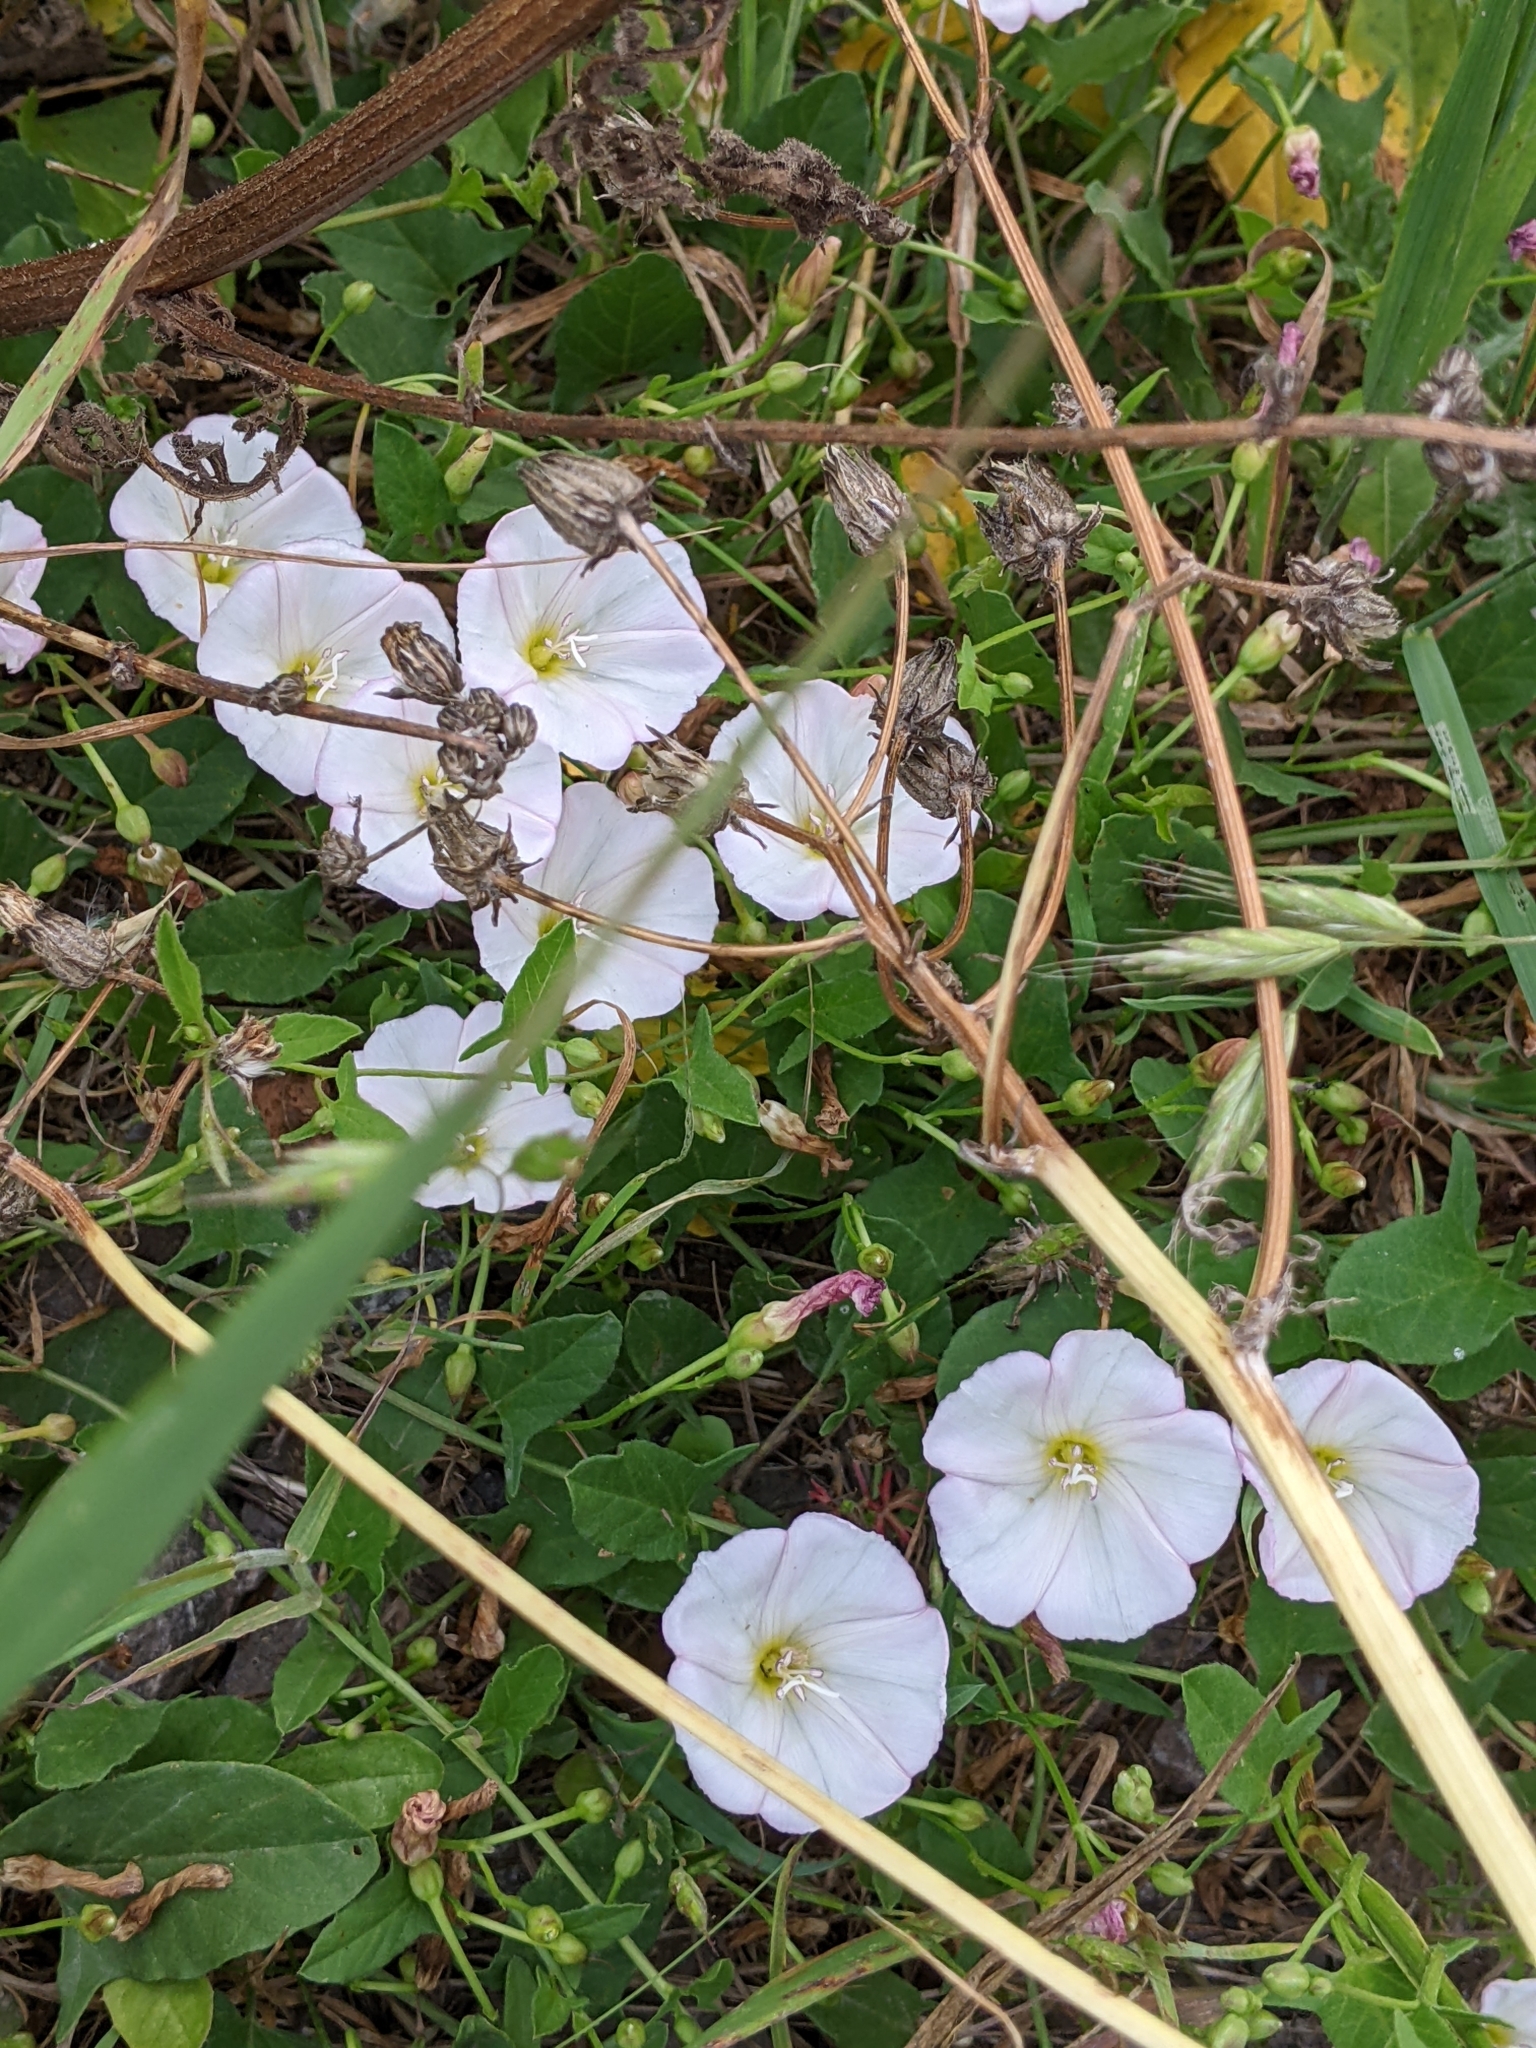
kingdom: Plantae
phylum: Tracheophyta
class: Magnoliopsida
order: Solanales
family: Convolvulaceae
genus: Convolvulus
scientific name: Convolvulus arvensis
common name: Field bindweed
